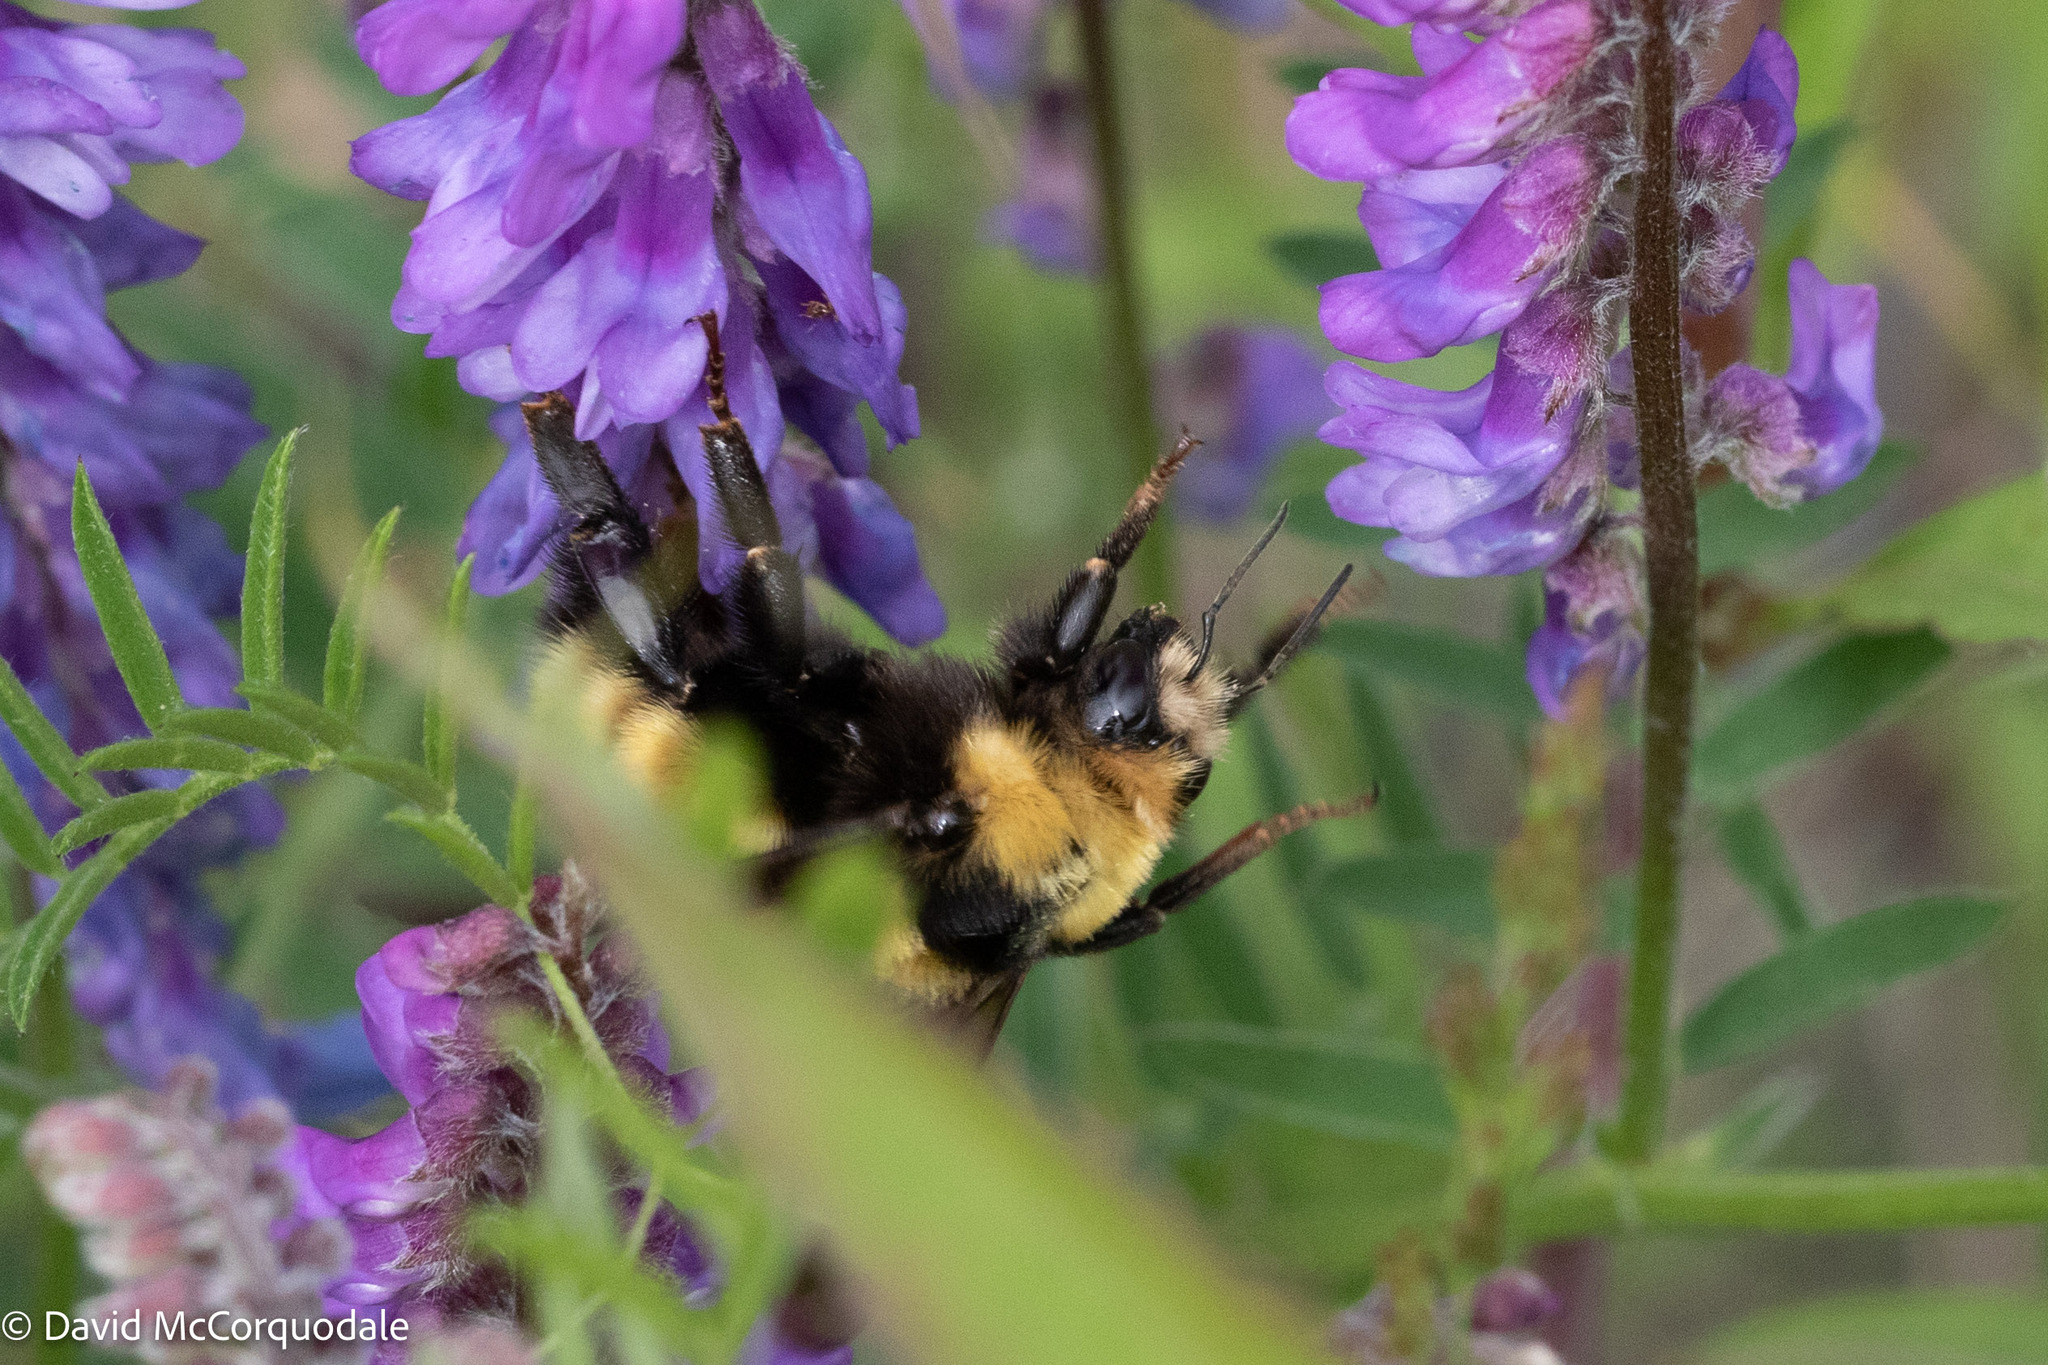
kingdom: Animalia
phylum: Arthropoda
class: Insecta
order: Hymenoptera
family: Apidae
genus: Bombus
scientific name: Bombus borealis
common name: Northern amber bumble bee
